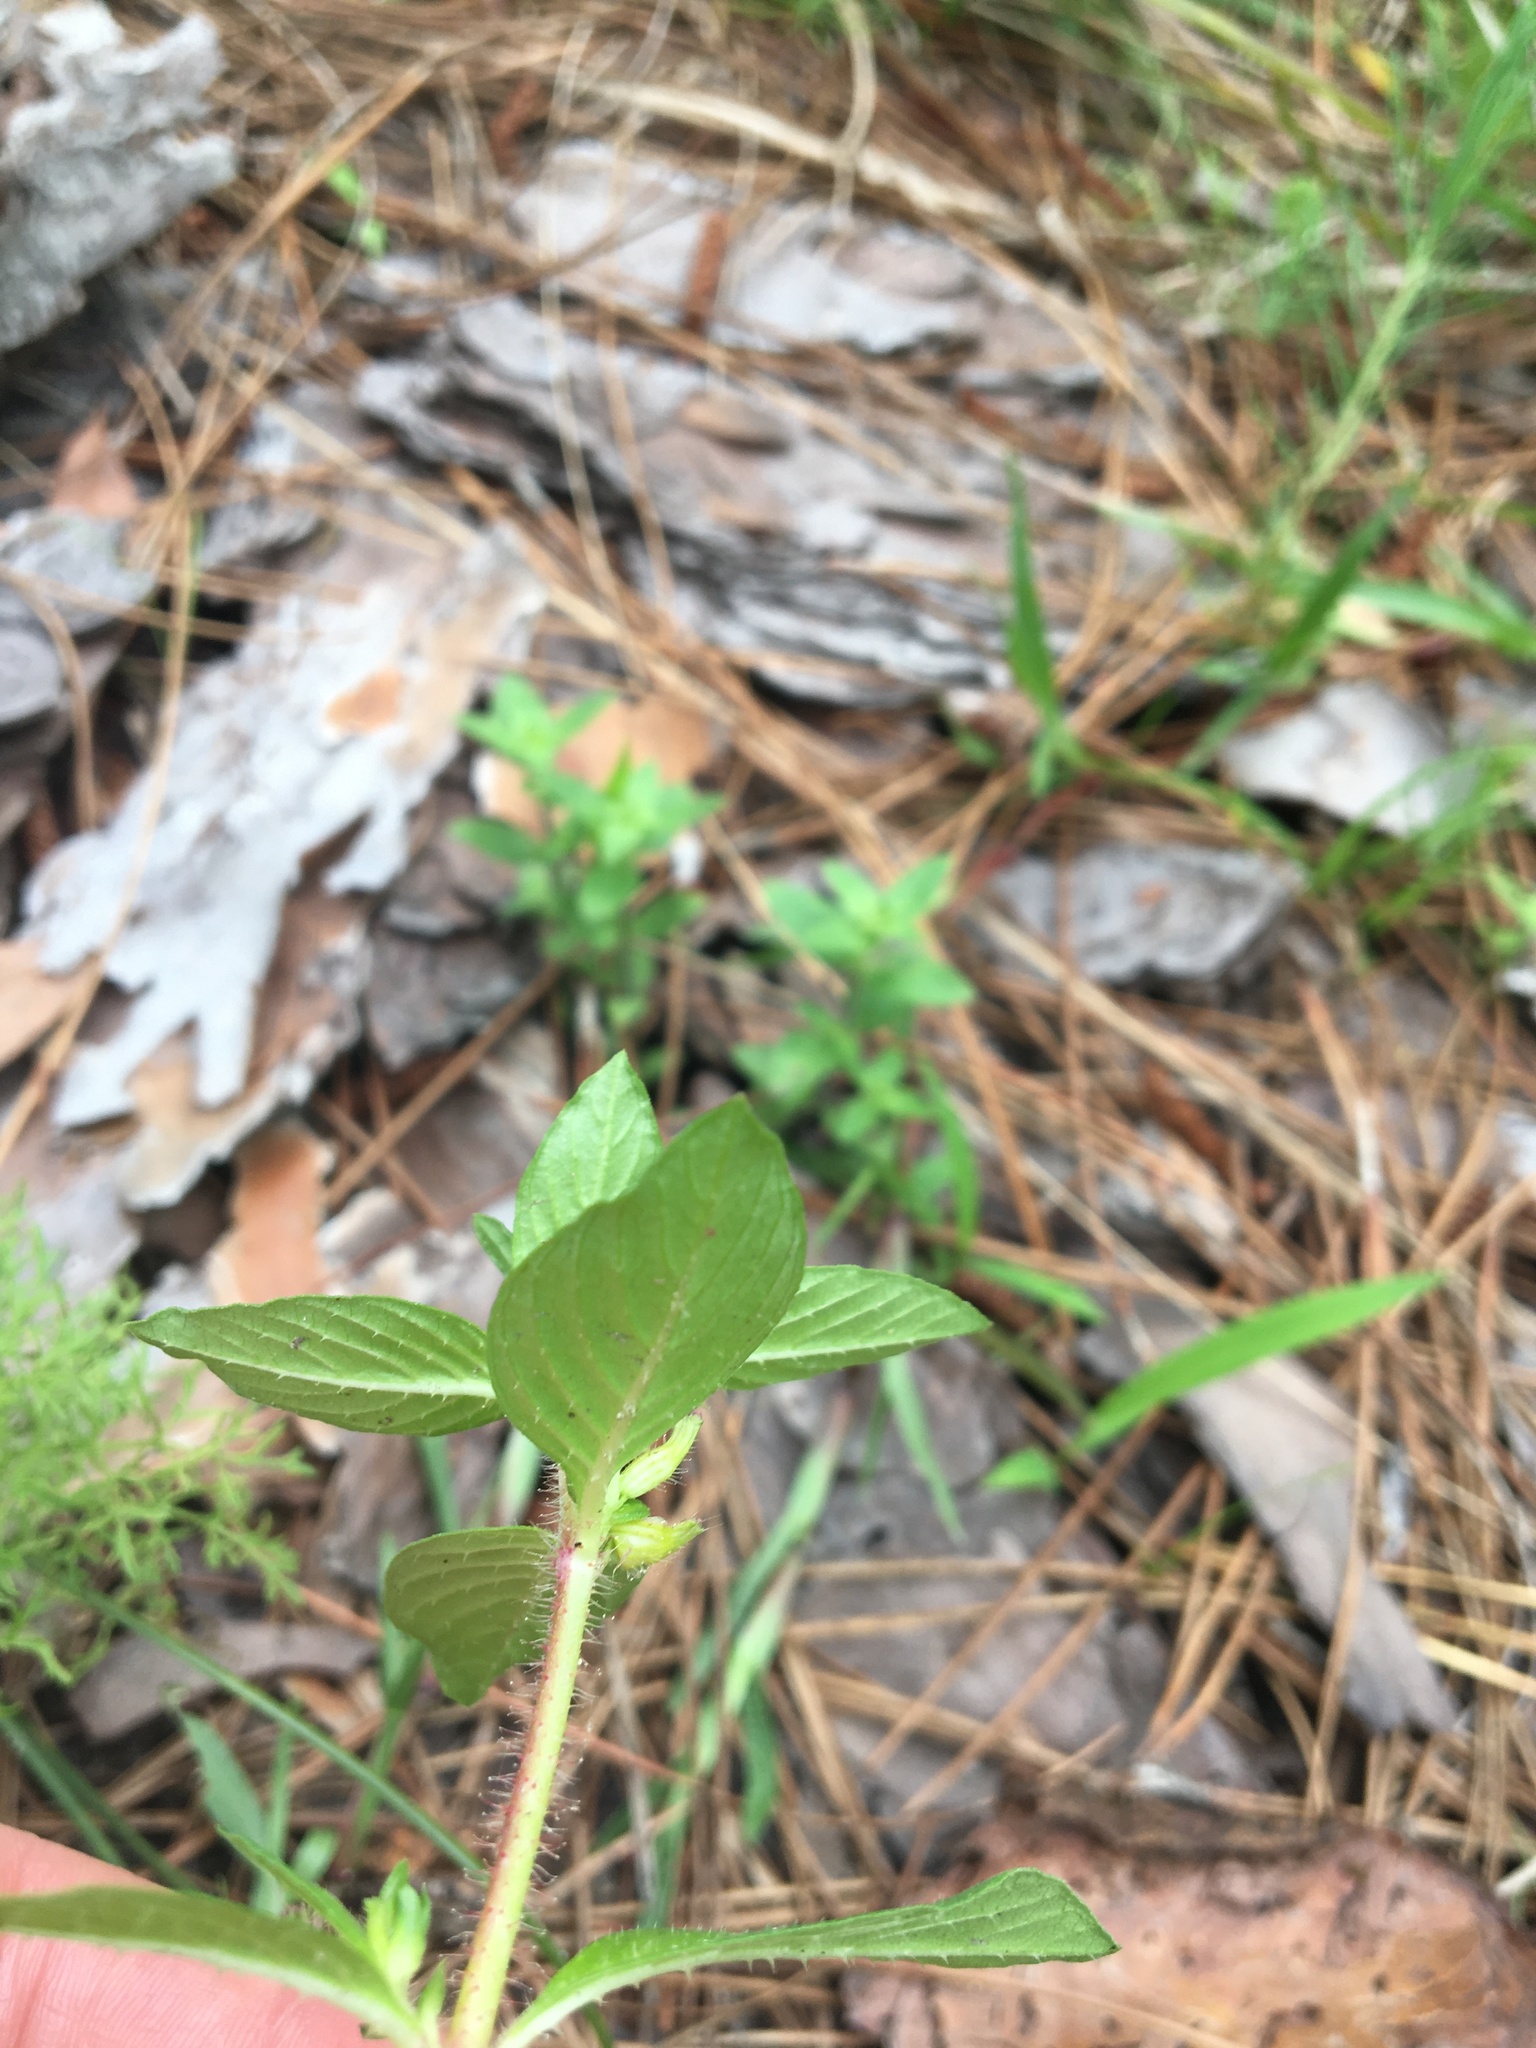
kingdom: Plantae
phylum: Tracheophyta
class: Magnoliopsida
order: Myrtales
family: Lythraceae
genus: Cuphea
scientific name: Cuphea carthagenensis
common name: Colombian waxweed
